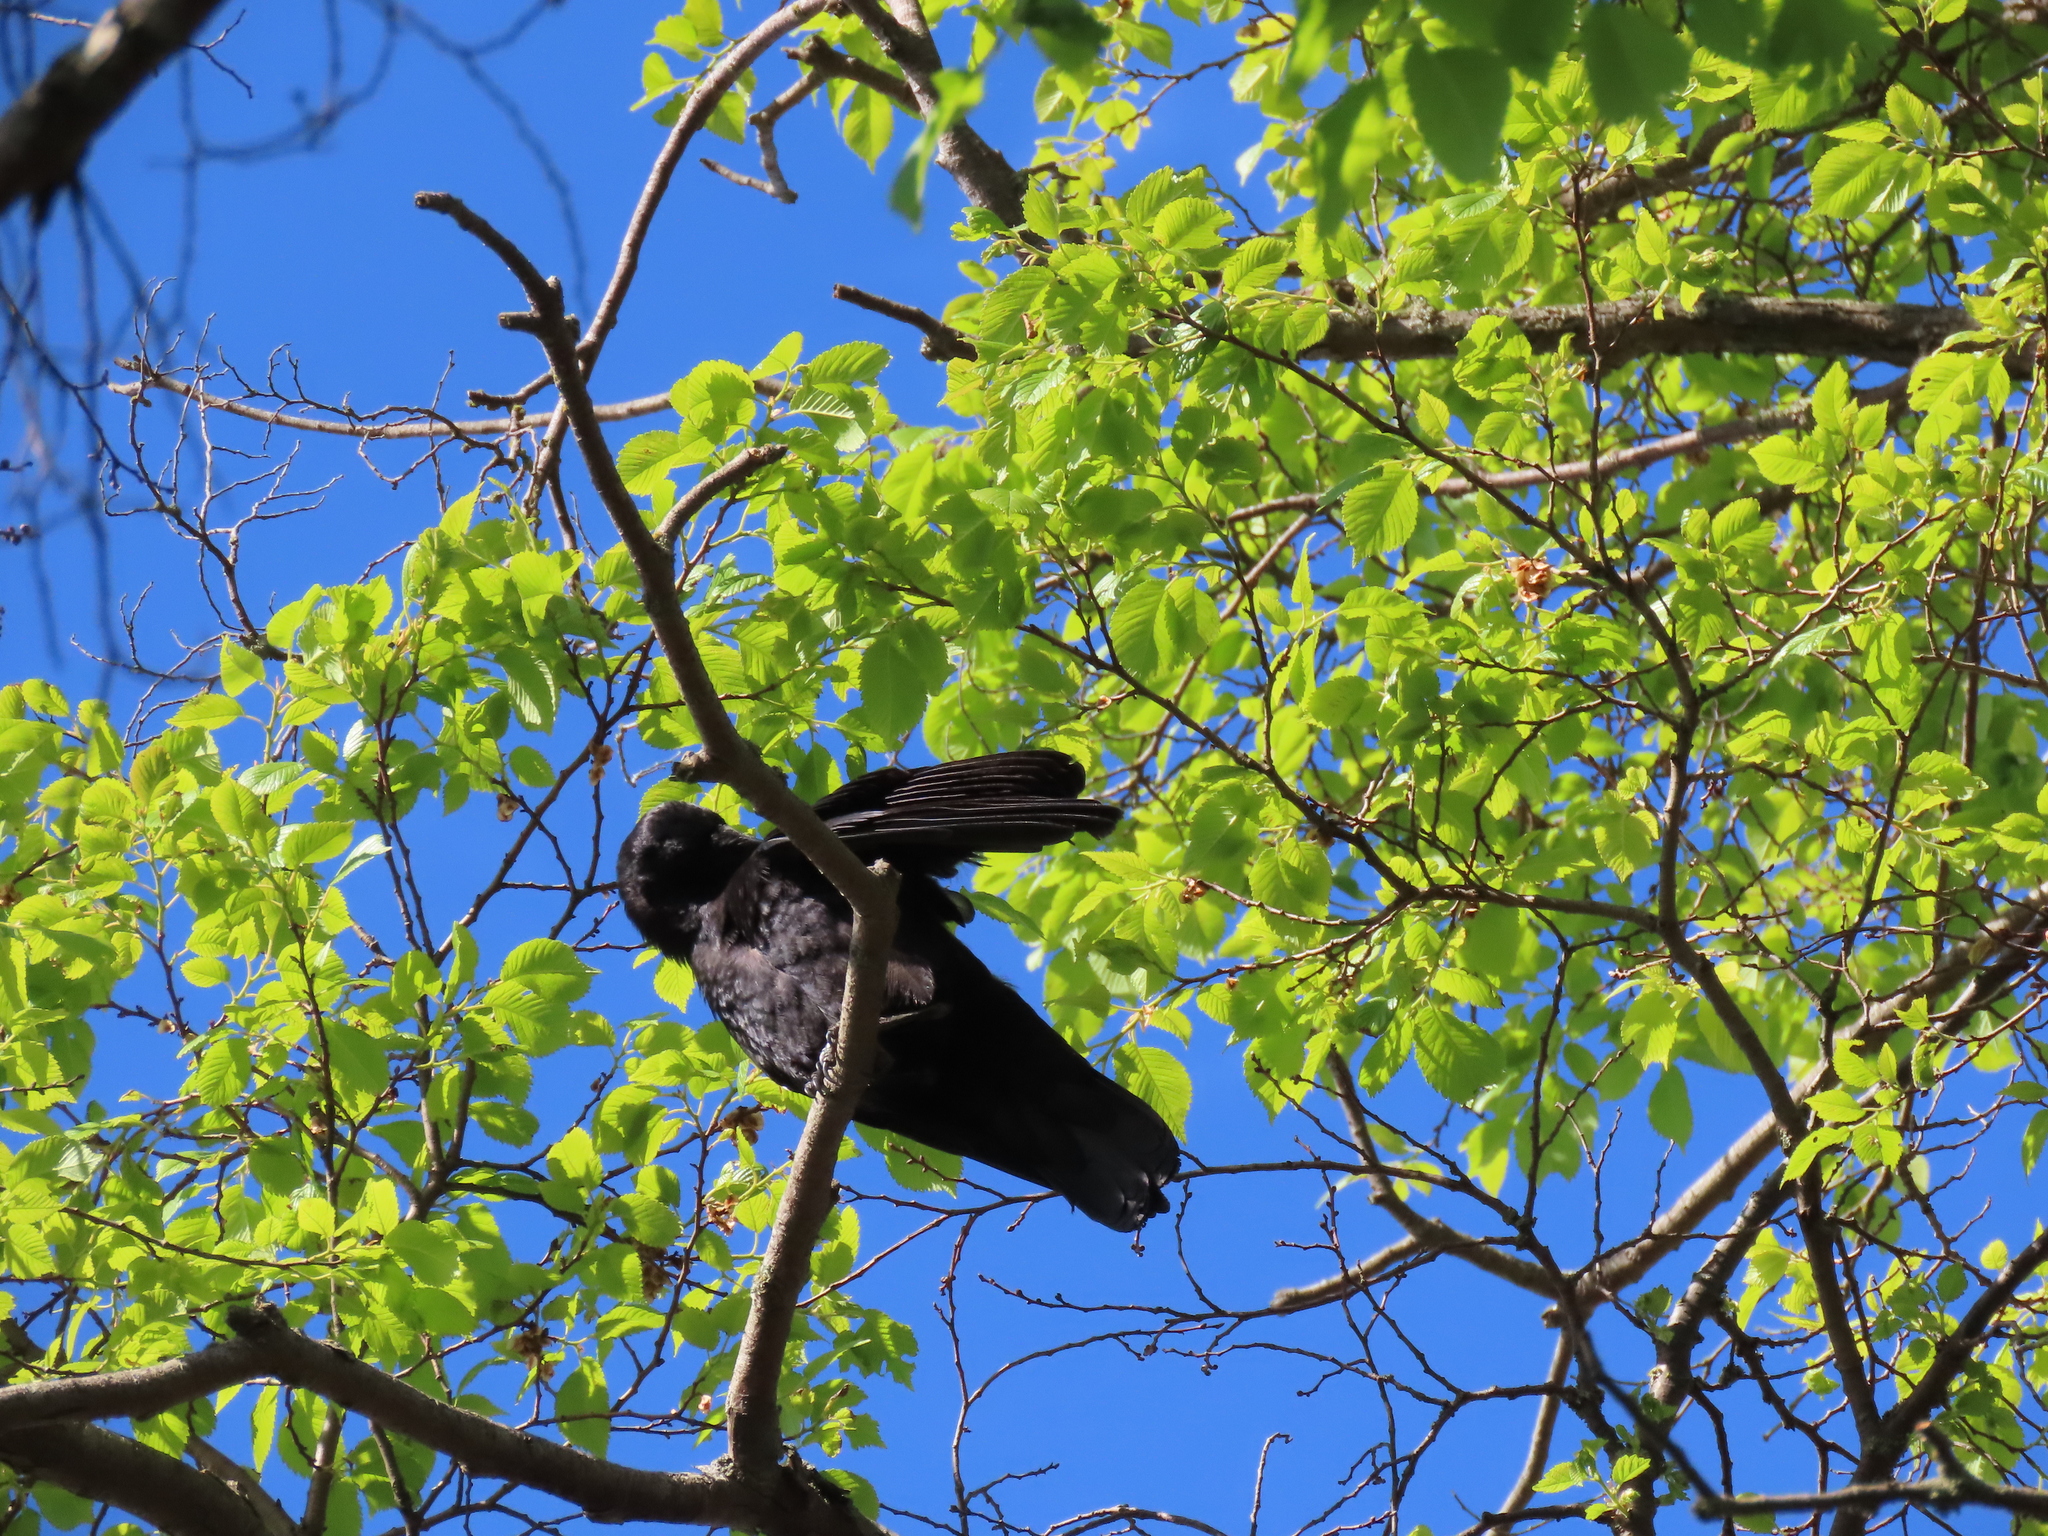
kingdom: Animalia
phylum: Chordata
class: Aves
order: Passeriformes
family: Corvidae
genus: Corvus
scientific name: Corvus brachyrhynchos
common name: American crow
